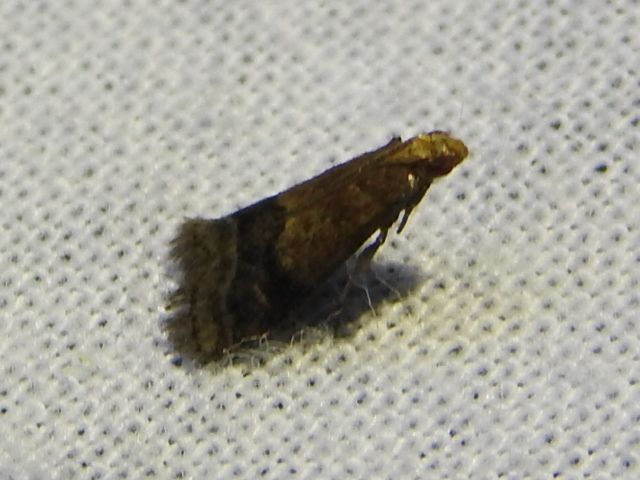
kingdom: Animalia
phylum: Arthropoda
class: Insecta
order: Lepidoptera
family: Pyralidae
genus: Eulogia
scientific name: Eulogia ochrifrontella
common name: Broad-banded eulogia moth
